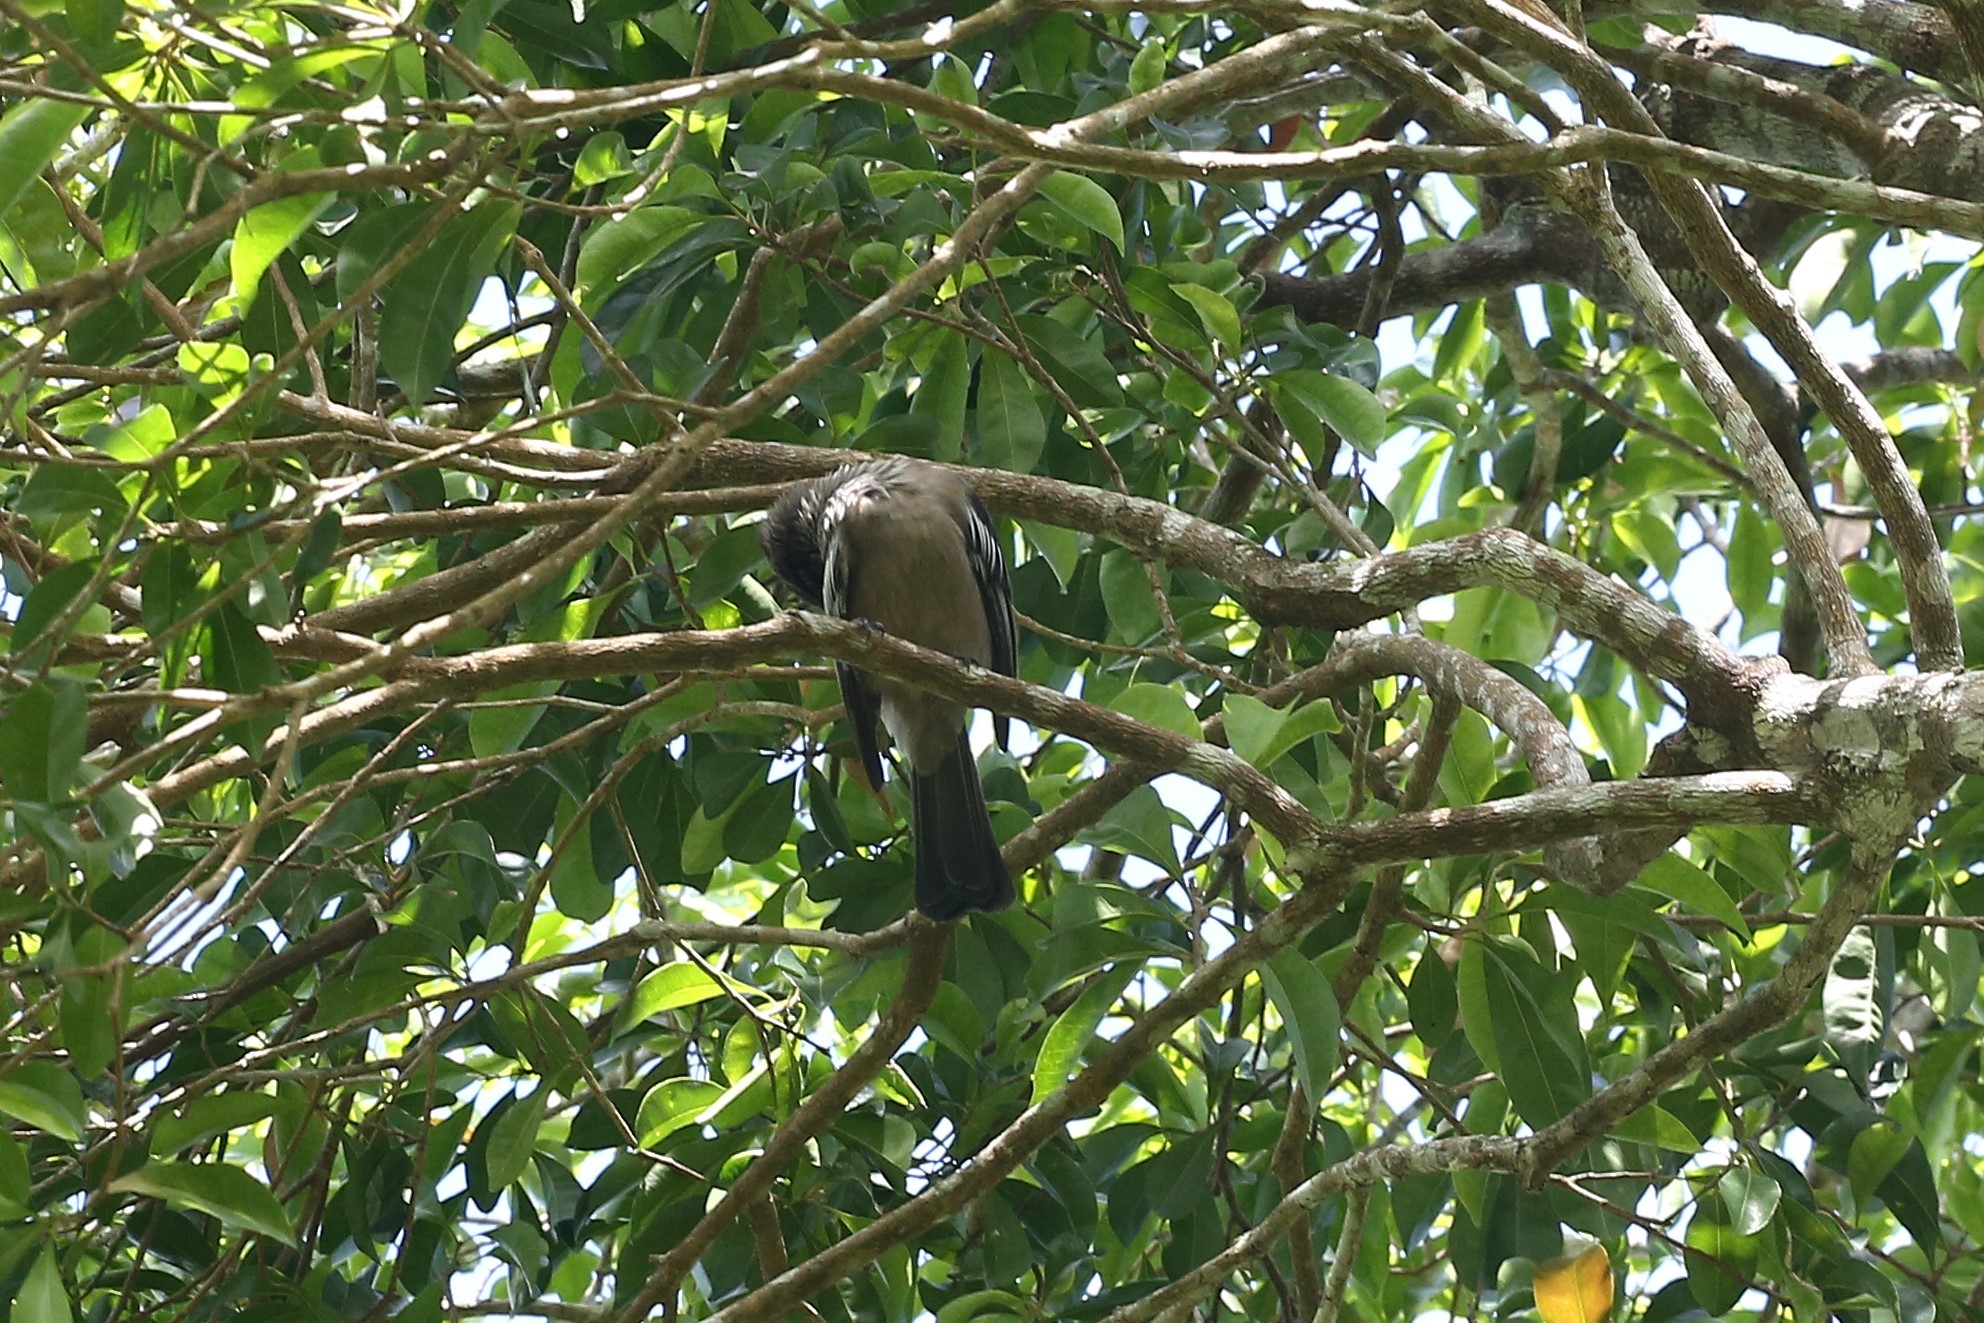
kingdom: Animalia
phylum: Chordata
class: Aves
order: Passeriformes
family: Meliphagidae
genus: Philemon
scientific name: Philemon diemenensis
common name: New caledonian friarbird
